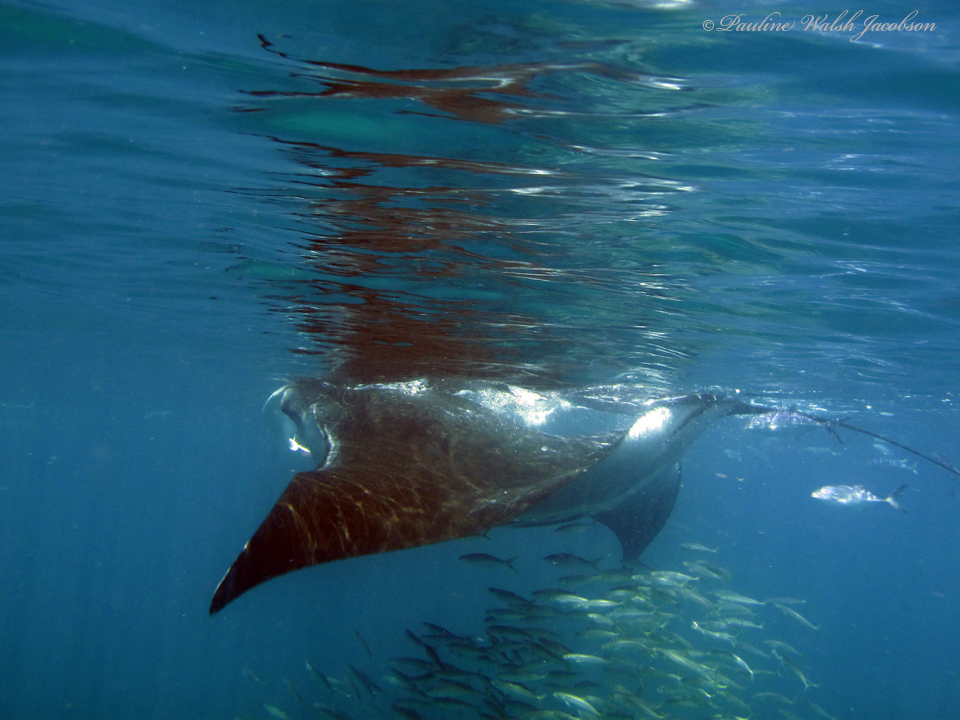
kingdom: Animalia
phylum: Chordata
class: Elasmobranchii
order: Myliobatiformes
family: Myliobatidae
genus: Mobula
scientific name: Mobula birostris
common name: Manta ray
